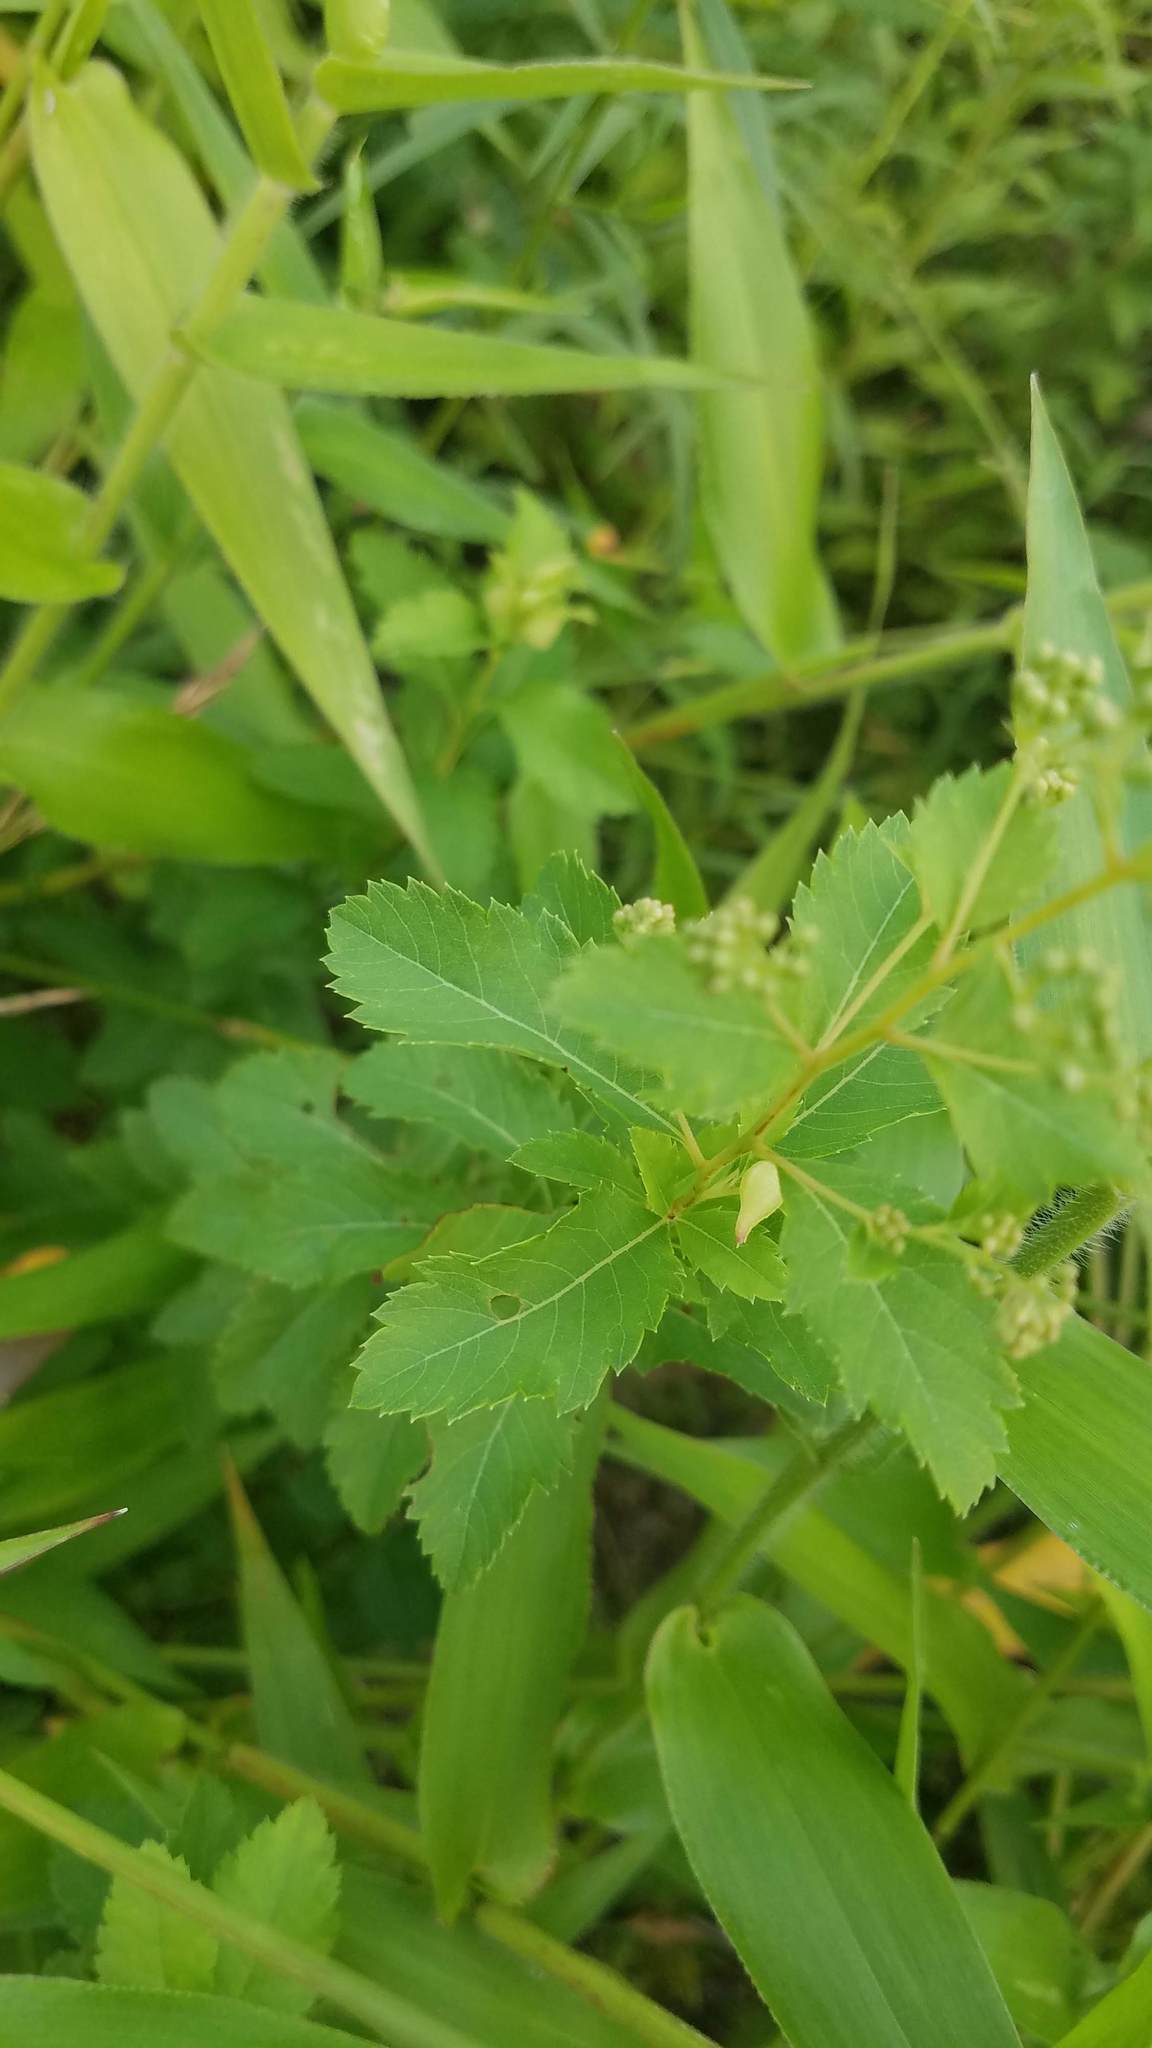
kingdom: Plantae
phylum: Tracheophyta
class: Magnoliopsida
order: Rosales
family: Rosaceae
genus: Spiraea
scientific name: Spiraea alba
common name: Pale bridewort
